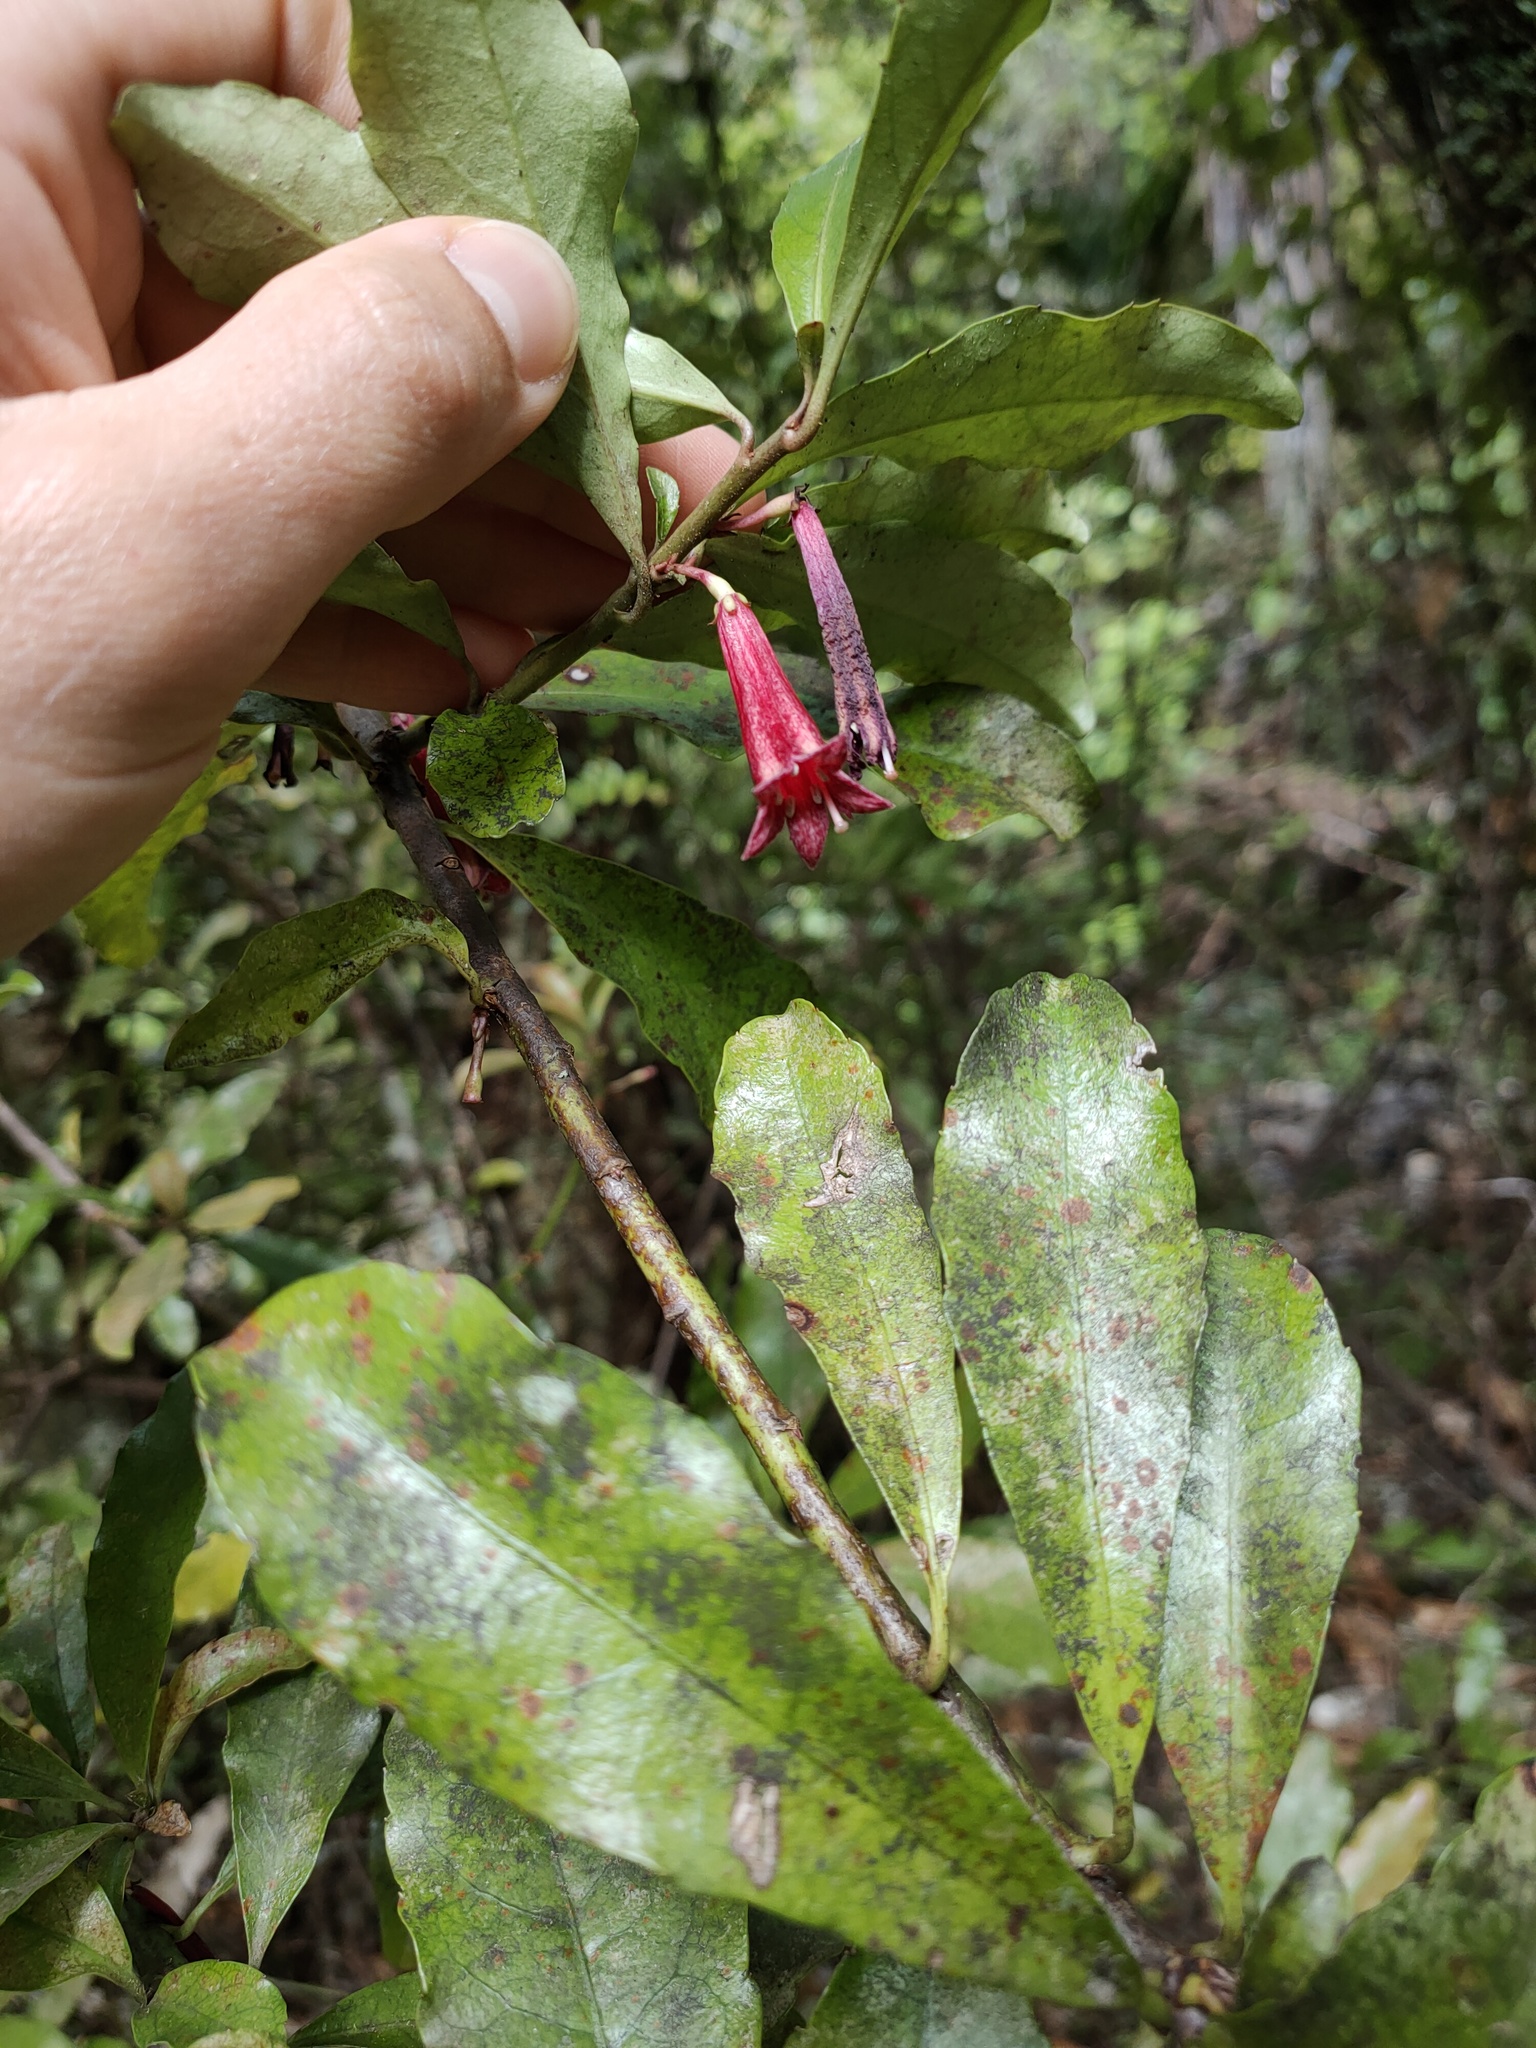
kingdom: Plantae
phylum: Tracheophyta
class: Magnoliopsida
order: Asterales
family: Alseuosmiaceae
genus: Alseuosmia
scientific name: Alseuosmia macrophylla
